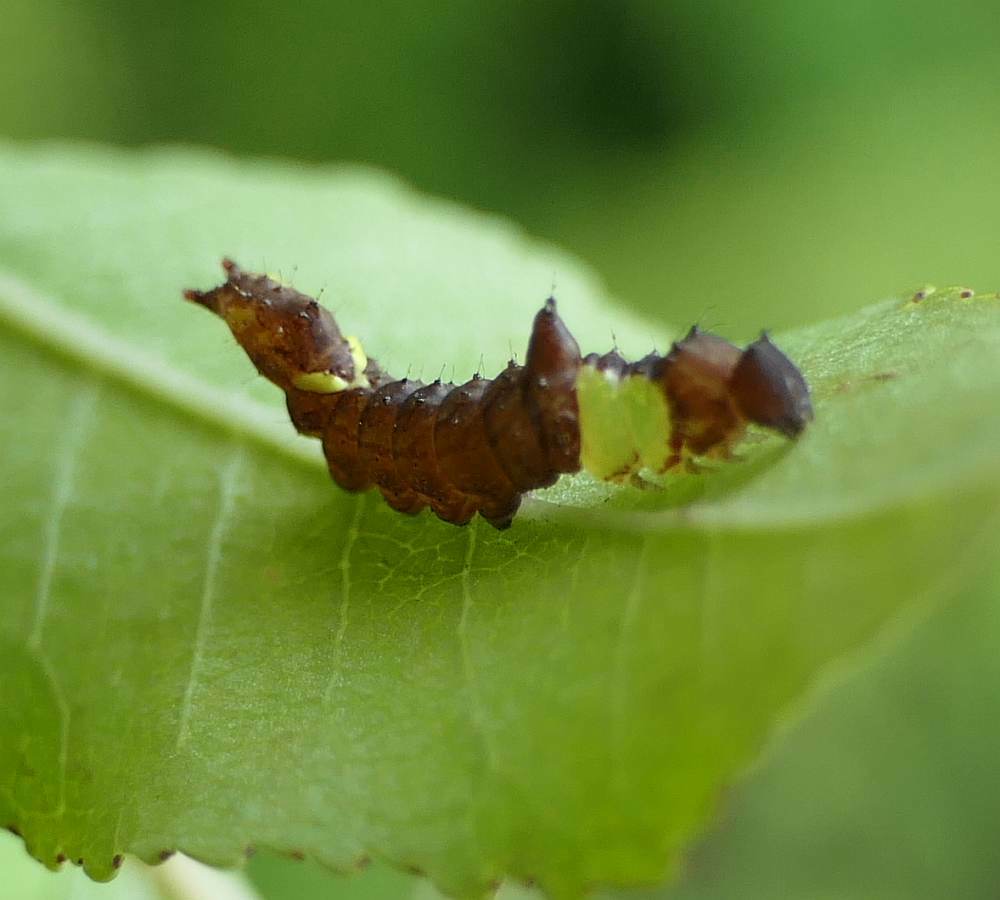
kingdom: Animalia
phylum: Arthropoda
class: Insecta
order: Lepidoptera
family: Notodontidae
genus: Schizura
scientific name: Schizura
